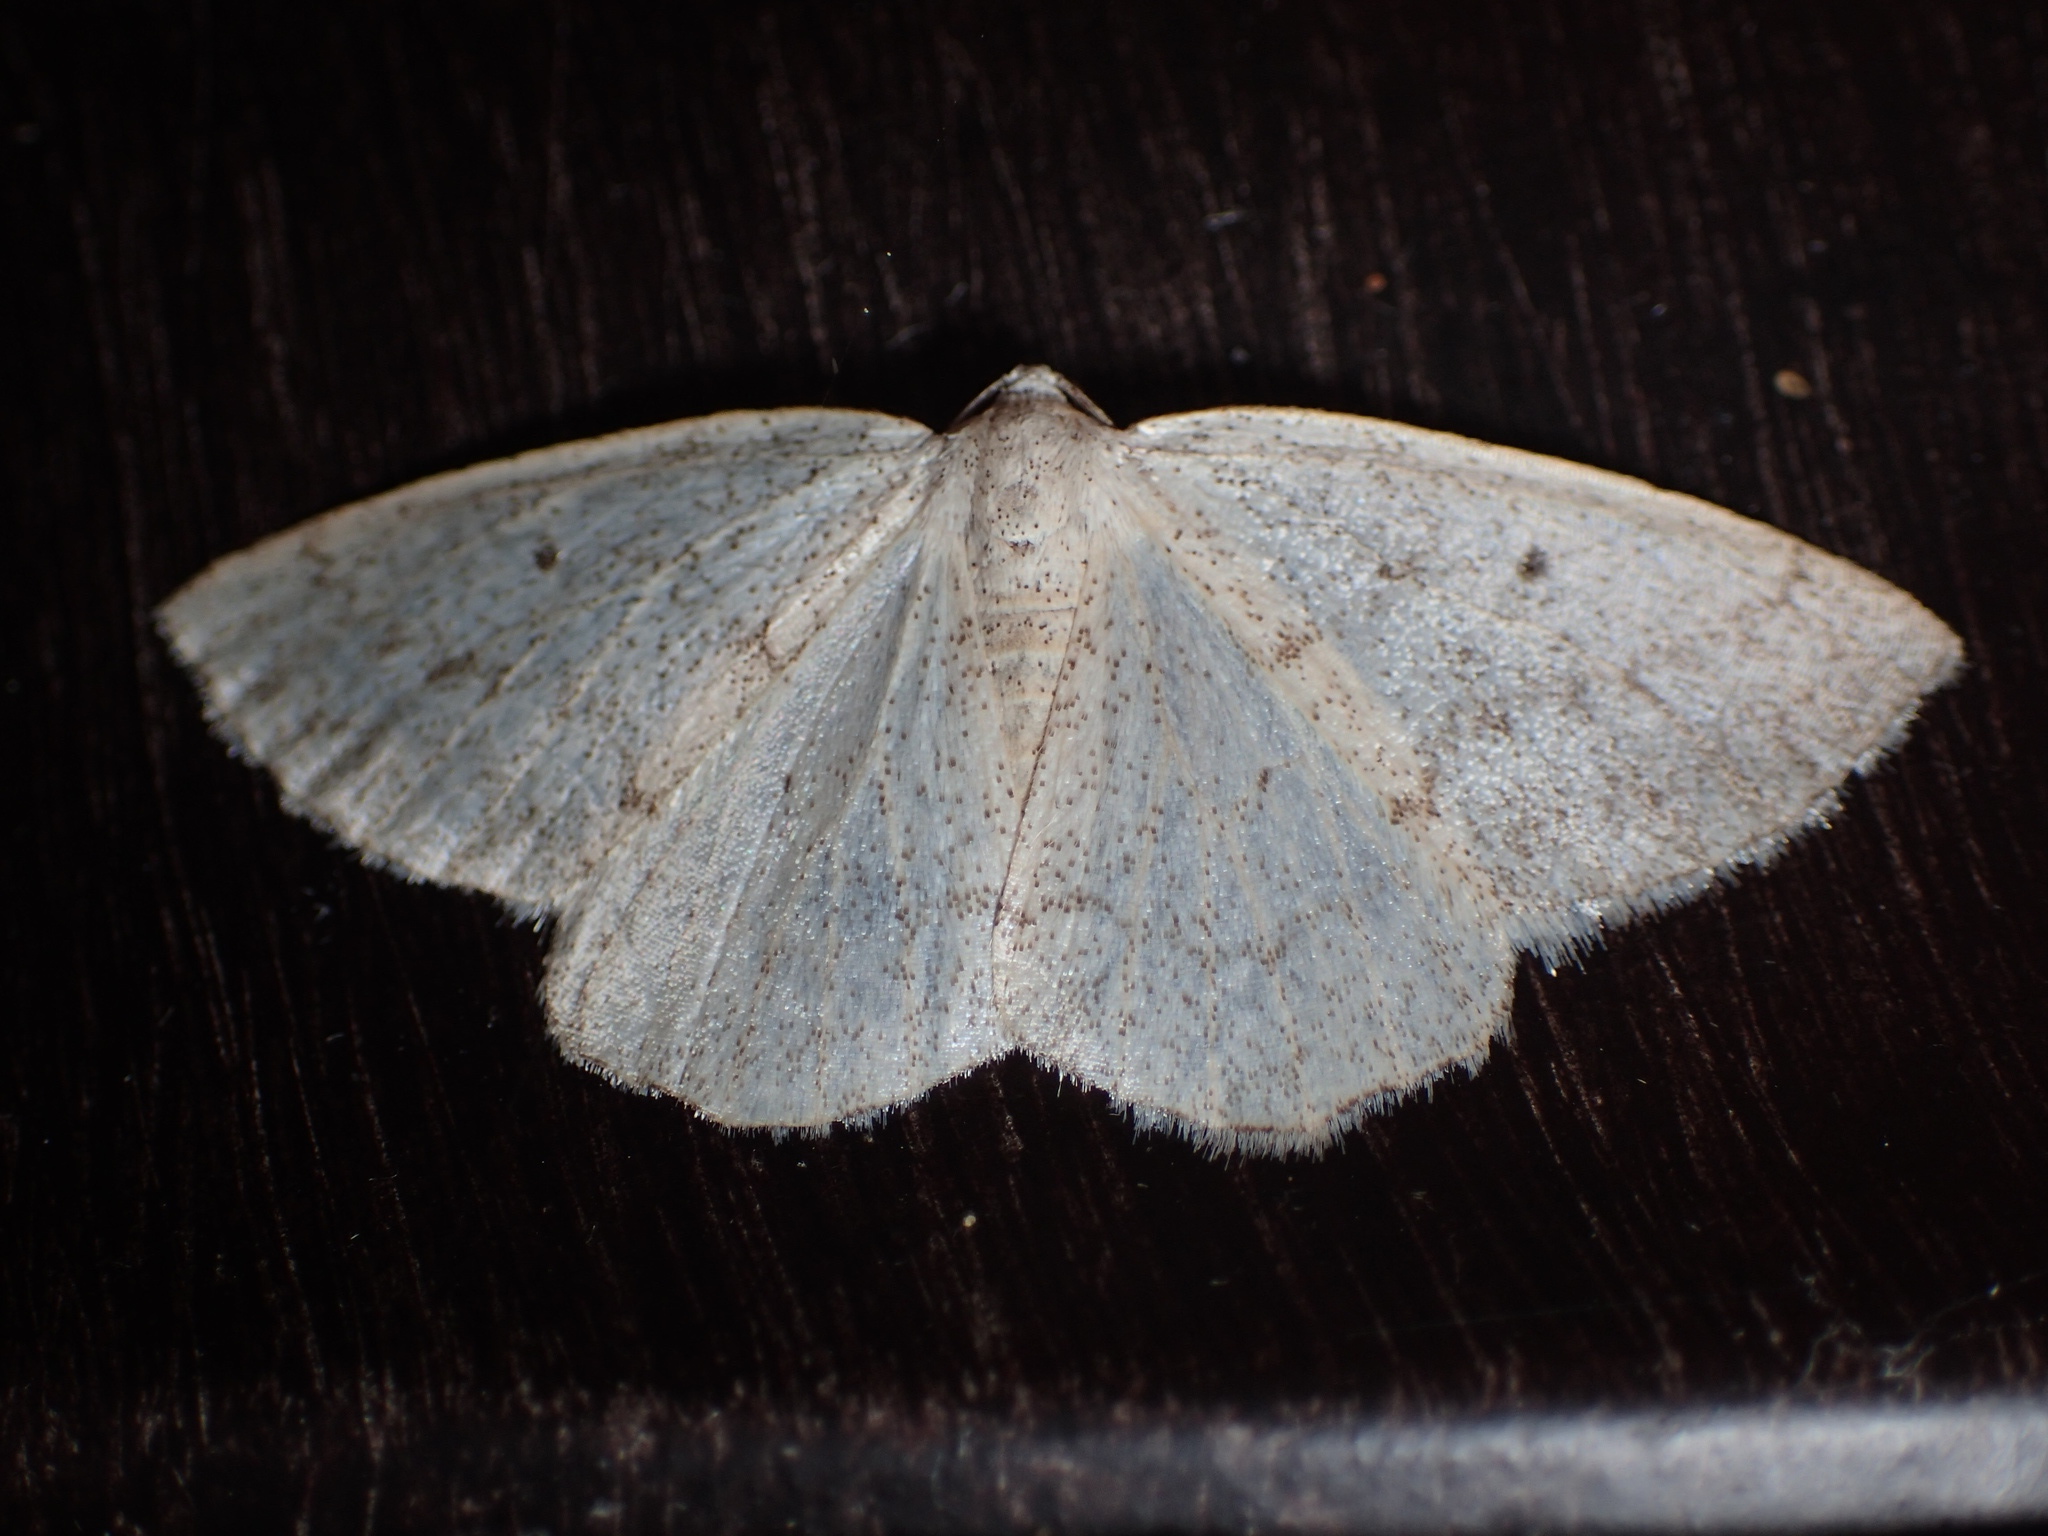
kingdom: Animalia
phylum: Arthropoda
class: Insecta
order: Lepidoptera
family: Geometridae
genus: Lomographa
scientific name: Lomographa glomeraria
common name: Gray spring moth
